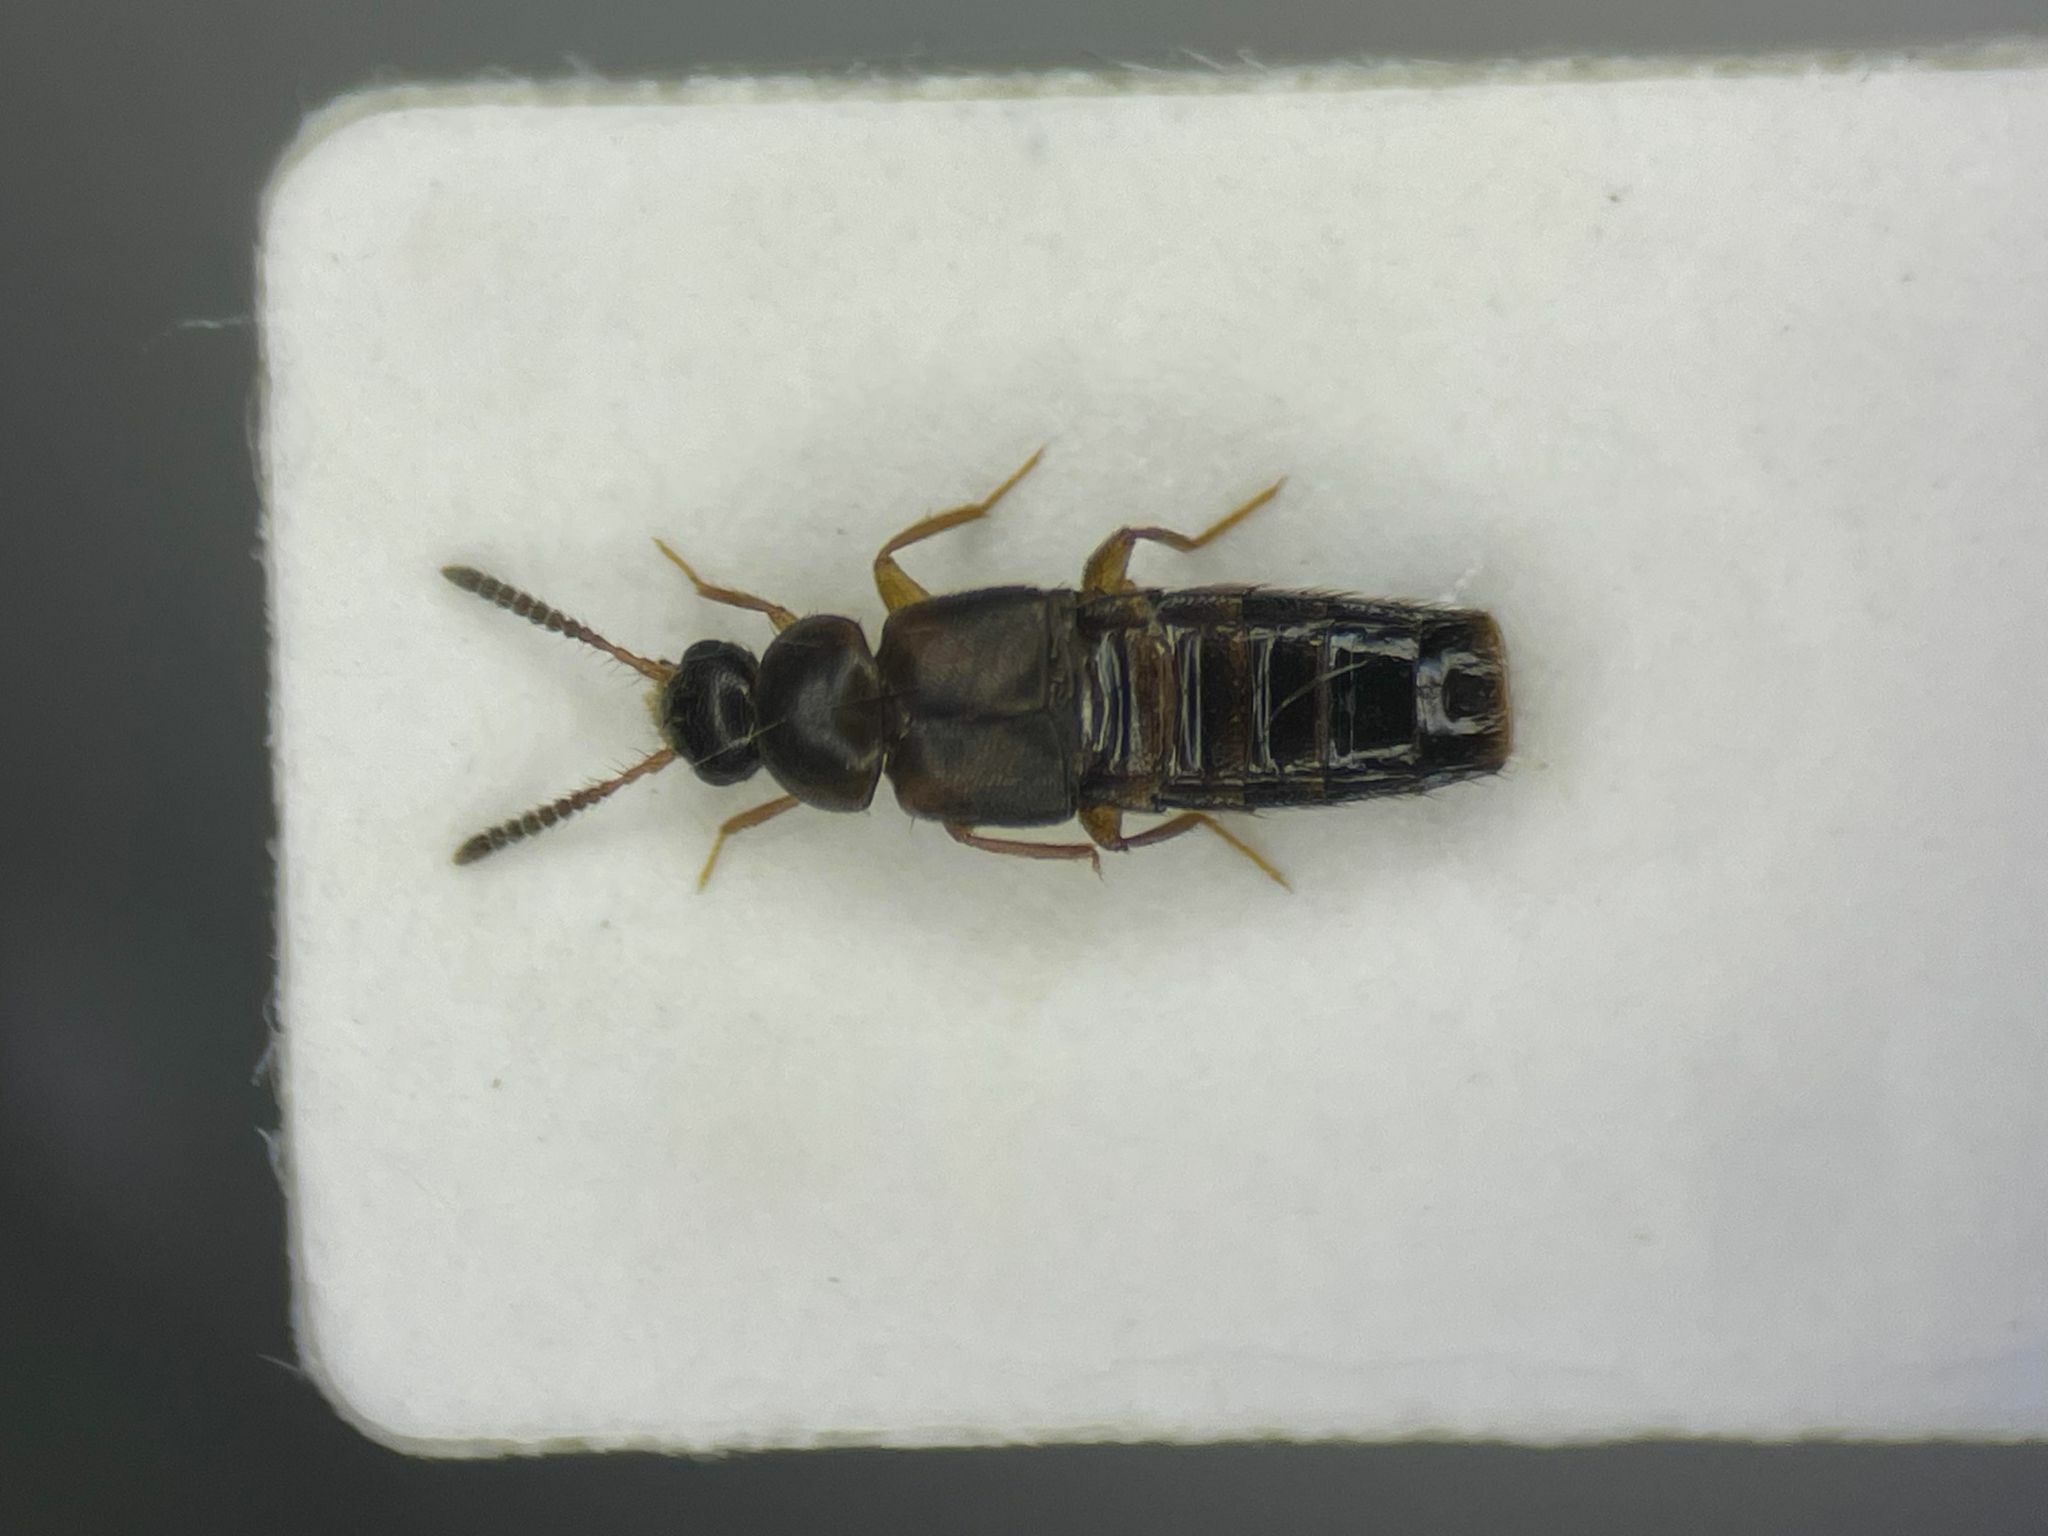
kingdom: Animalia
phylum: Arthropoda
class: Insecta
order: Coleoptera
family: Staphylinidae
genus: Thamiaraea
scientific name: Thamiaraea brittoni
